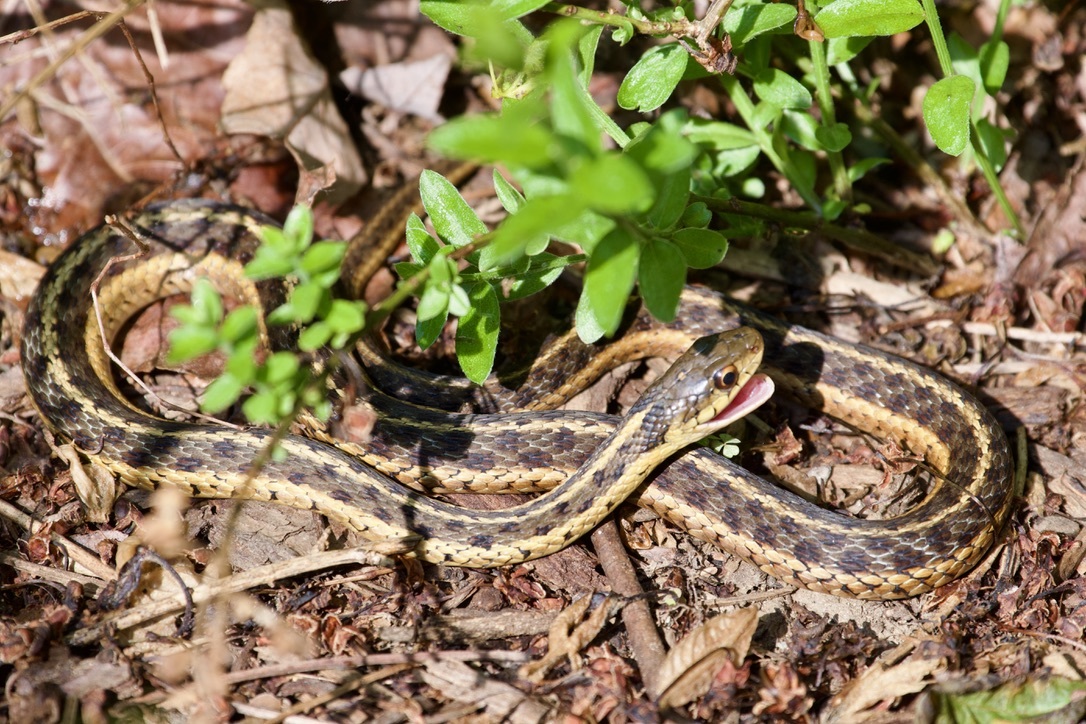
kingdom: Animalia
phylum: Chordata
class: Squamata
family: Colubridae
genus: Thamnophis
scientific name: Thamnophis sirtalis
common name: Common garter snake
